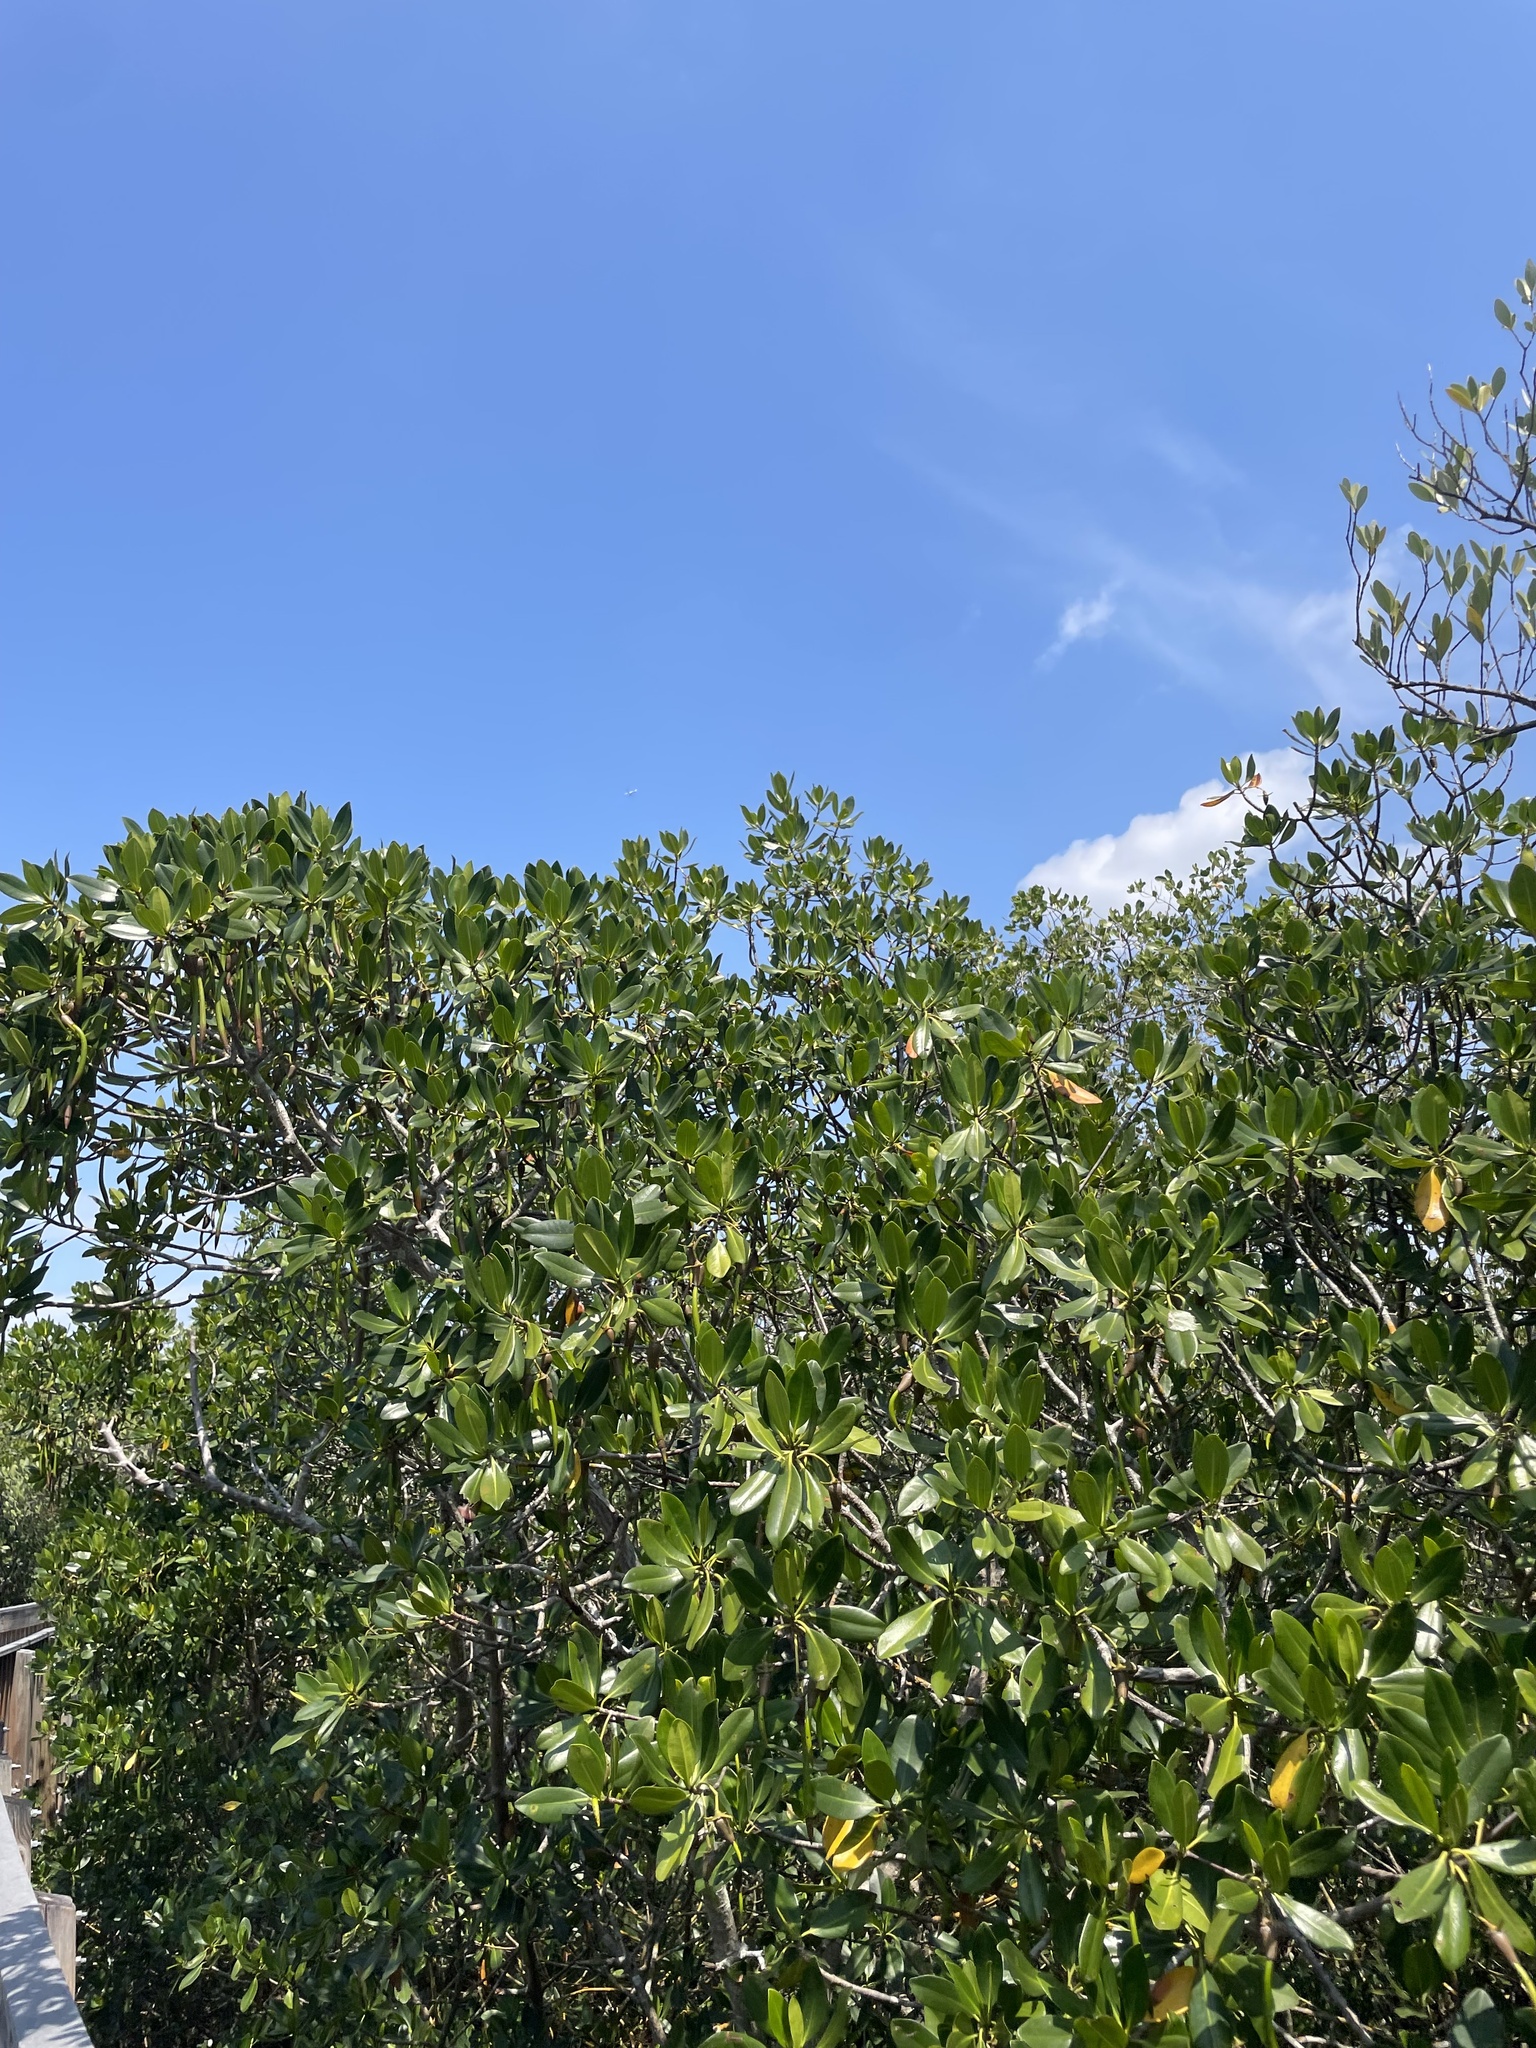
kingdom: Plantae
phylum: Tracheophyta
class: Magnoliopsida
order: Malpighiales
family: Rhizophoraceae
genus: Rhizophora
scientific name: Rhizophora mangle
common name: Red mangrove
